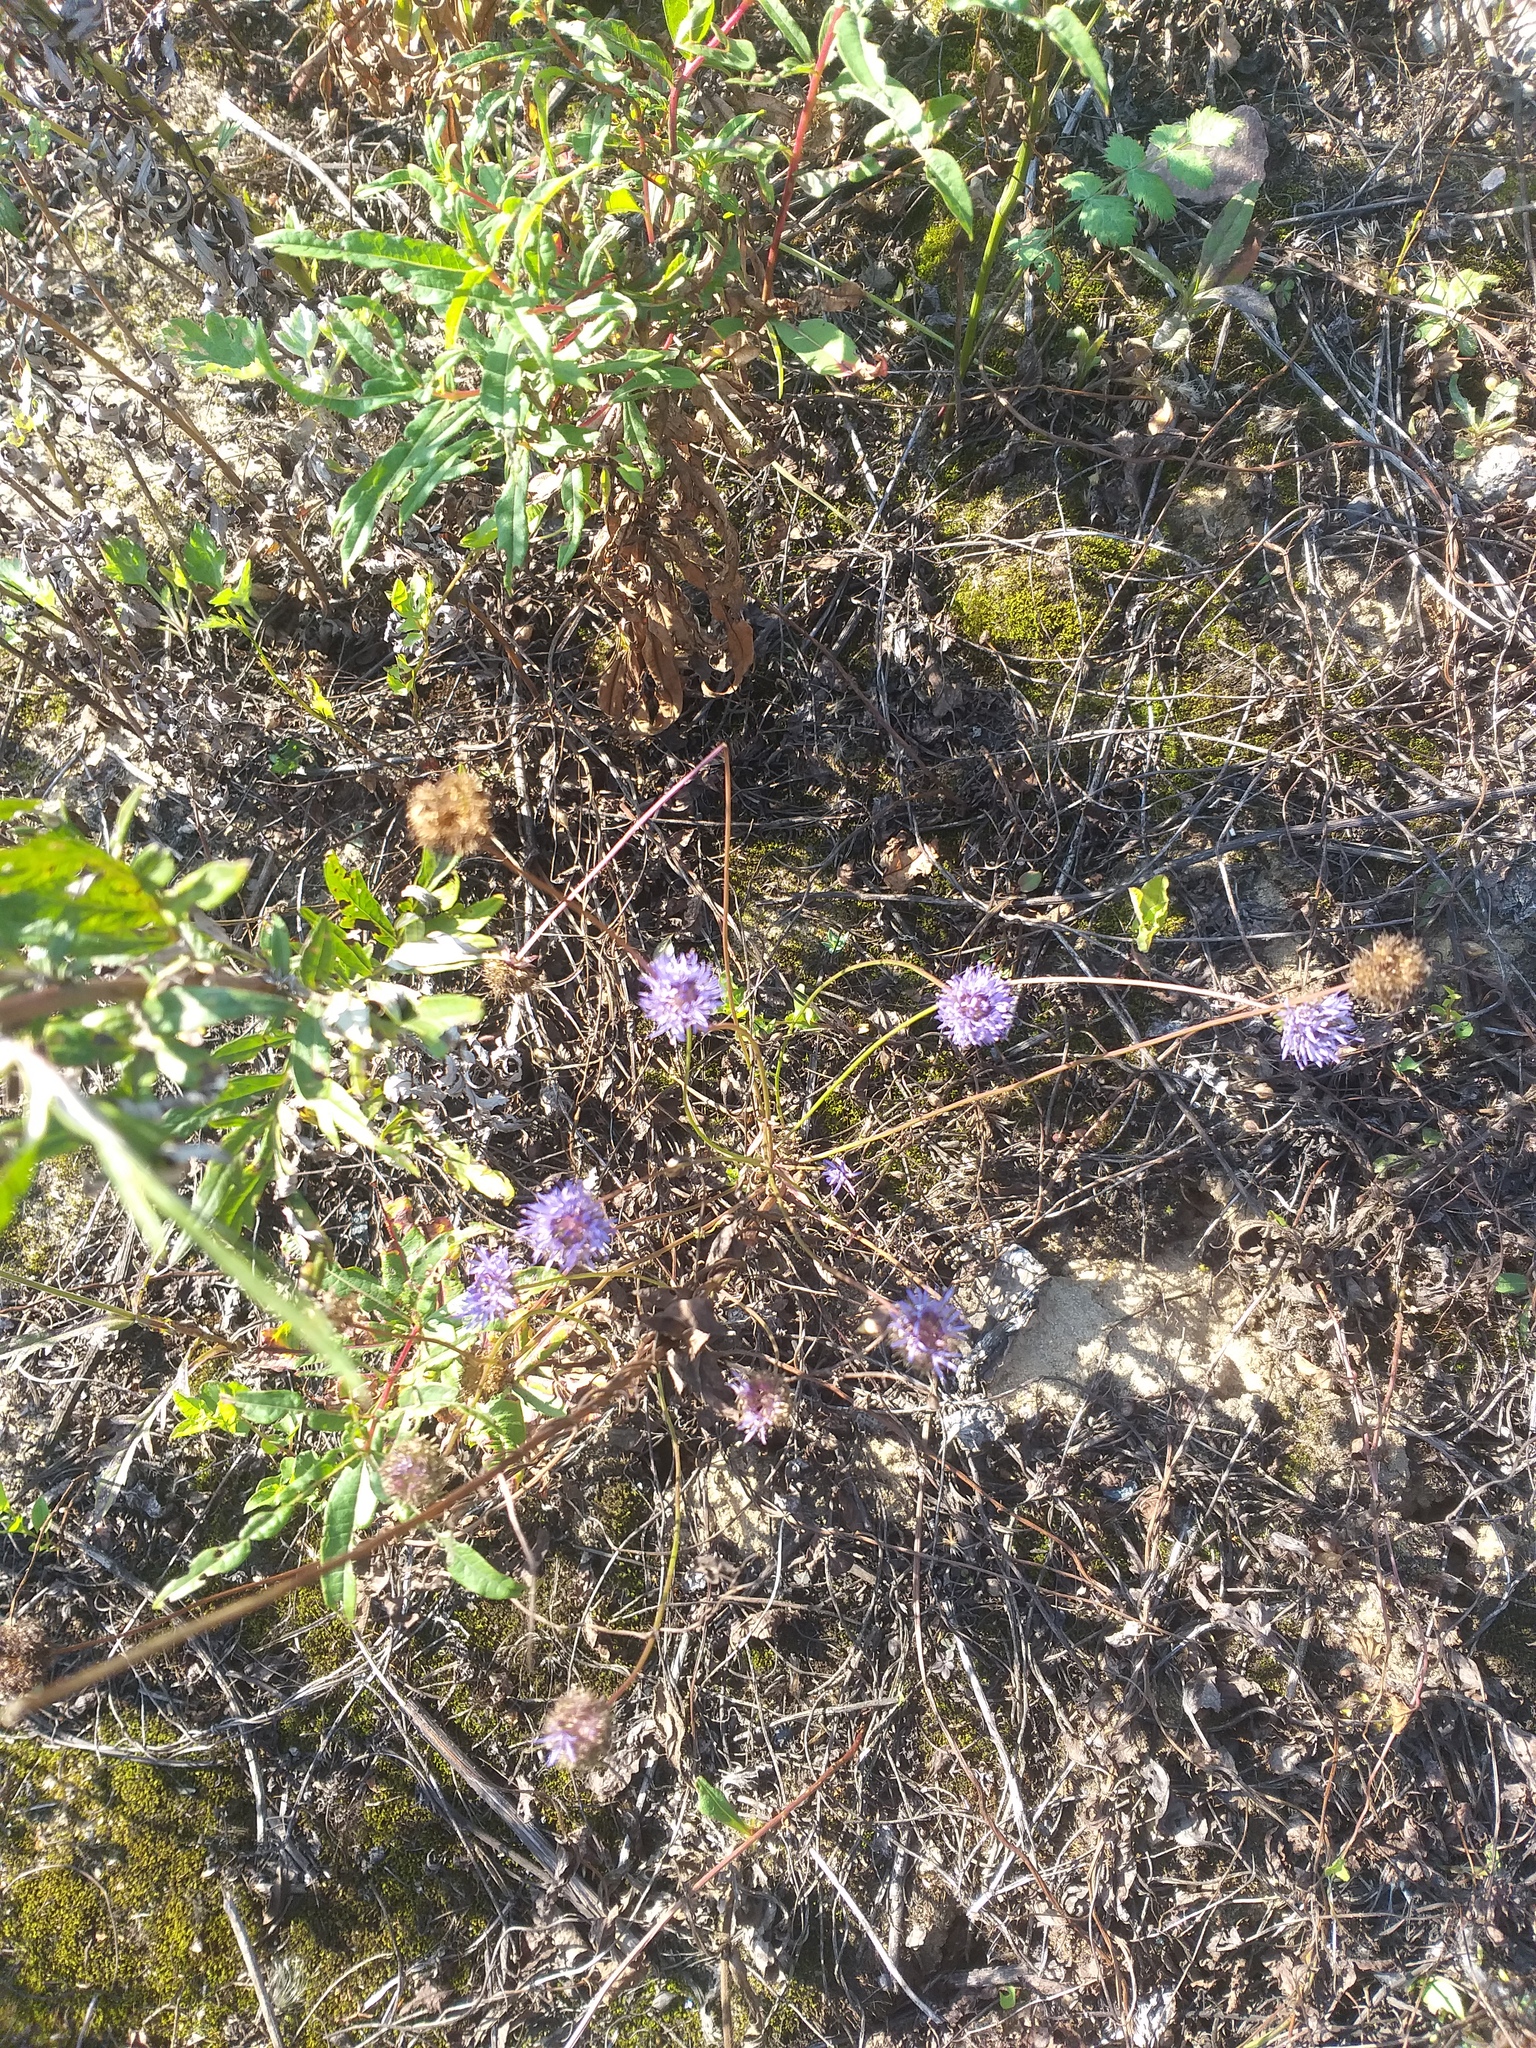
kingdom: Plantae
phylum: Tracheophyta
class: Magnoliopsida
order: Asterales
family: Campanulaceae
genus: Jasione
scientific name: Jasione montana
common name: Sheep's-bit
